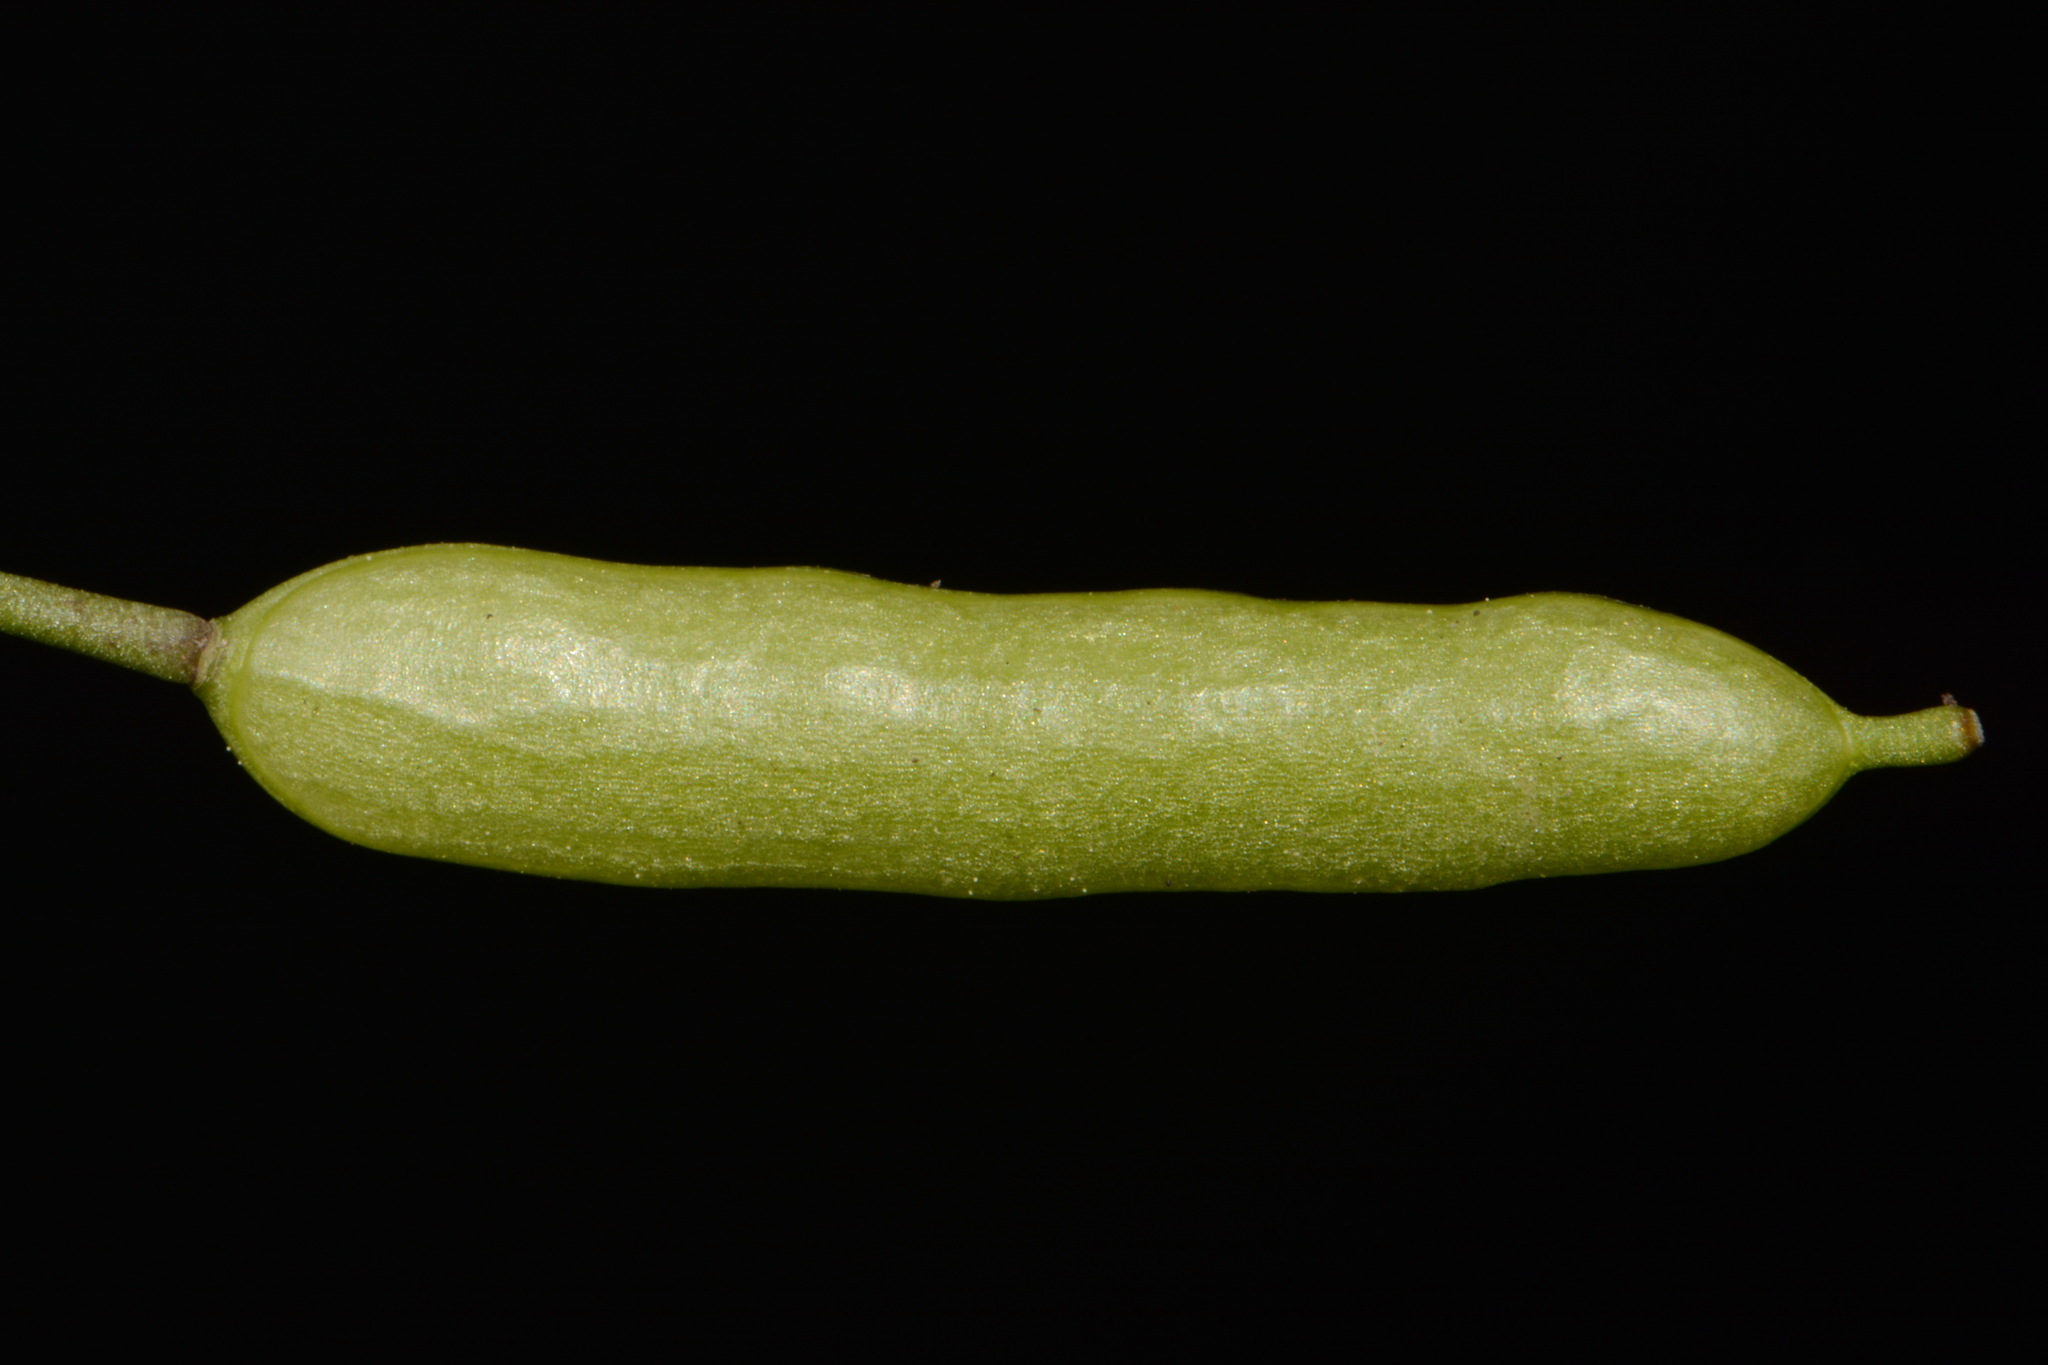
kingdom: Plantae
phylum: Tracheophyta
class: Magnoliopsida
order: Brassicales
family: Brassicaceae
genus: Leavenworthia
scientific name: Leavenworthia uniflora
